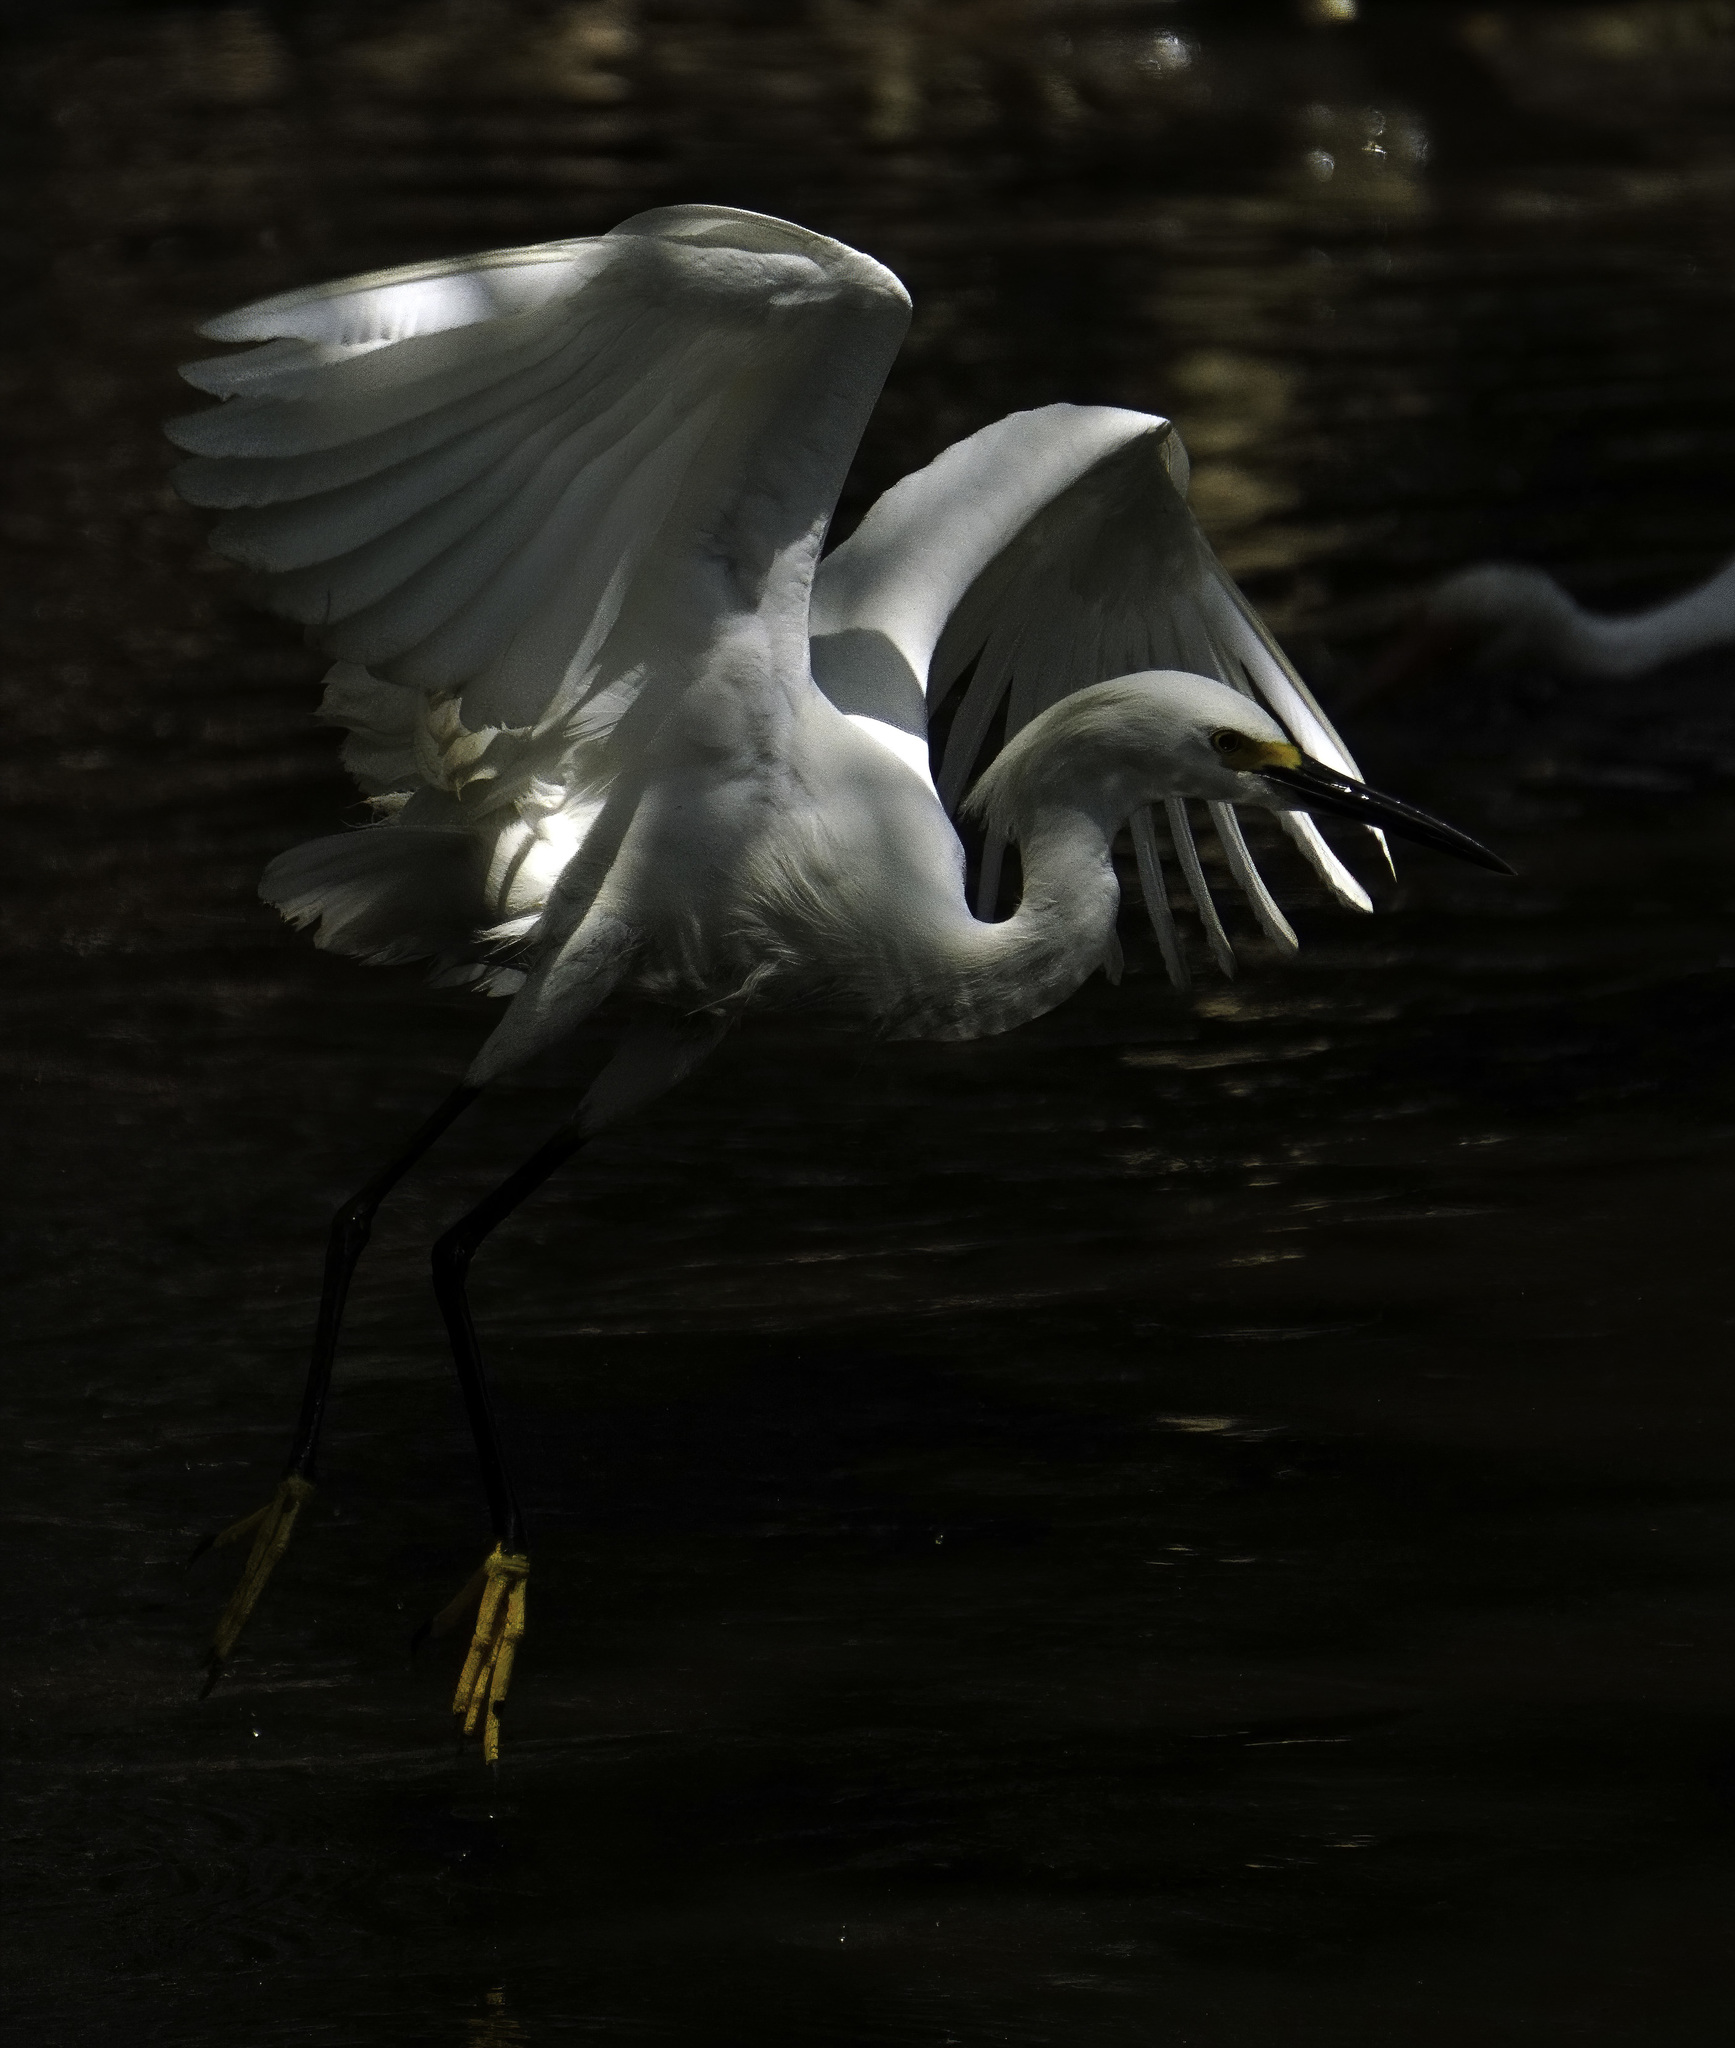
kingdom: Animalia
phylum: Chordata
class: Aves
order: Pelecaniformes
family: Ardeidae
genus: Egretta
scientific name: Egretta thula
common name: Snowy egret
